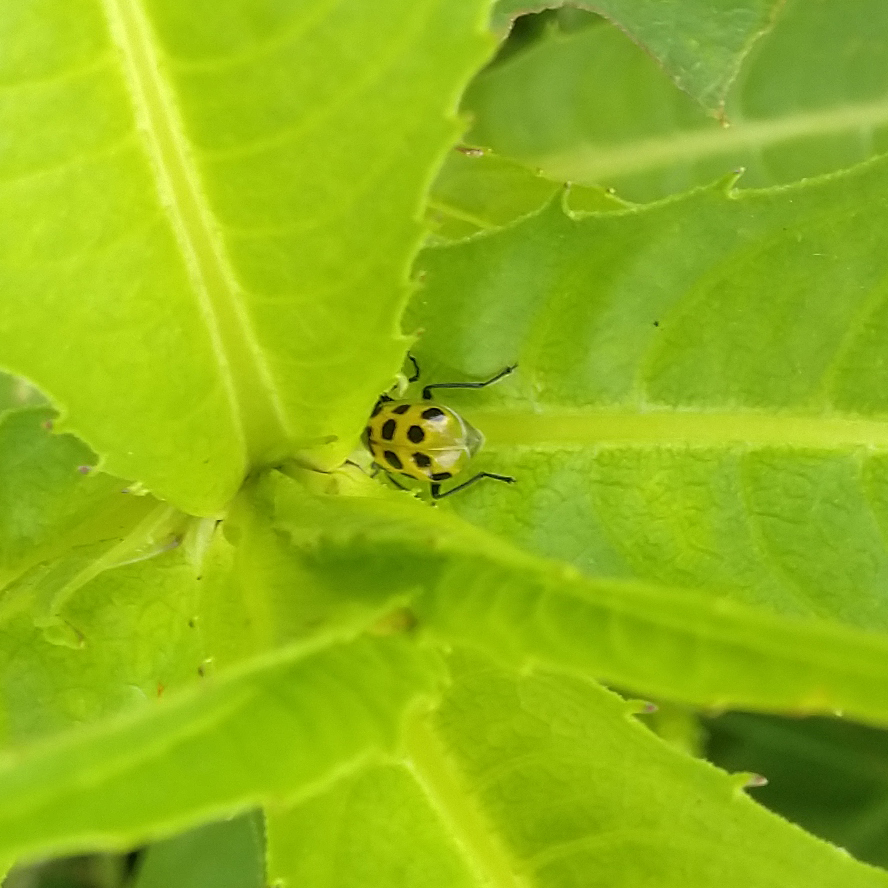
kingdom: Animalia
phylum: Arthropoda
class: Insecta
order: Coleoptera
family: Chrysomelidae
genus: Diabrotica
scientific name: Diabrotica undecimpunctata
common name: Spotted cucumber beetle
